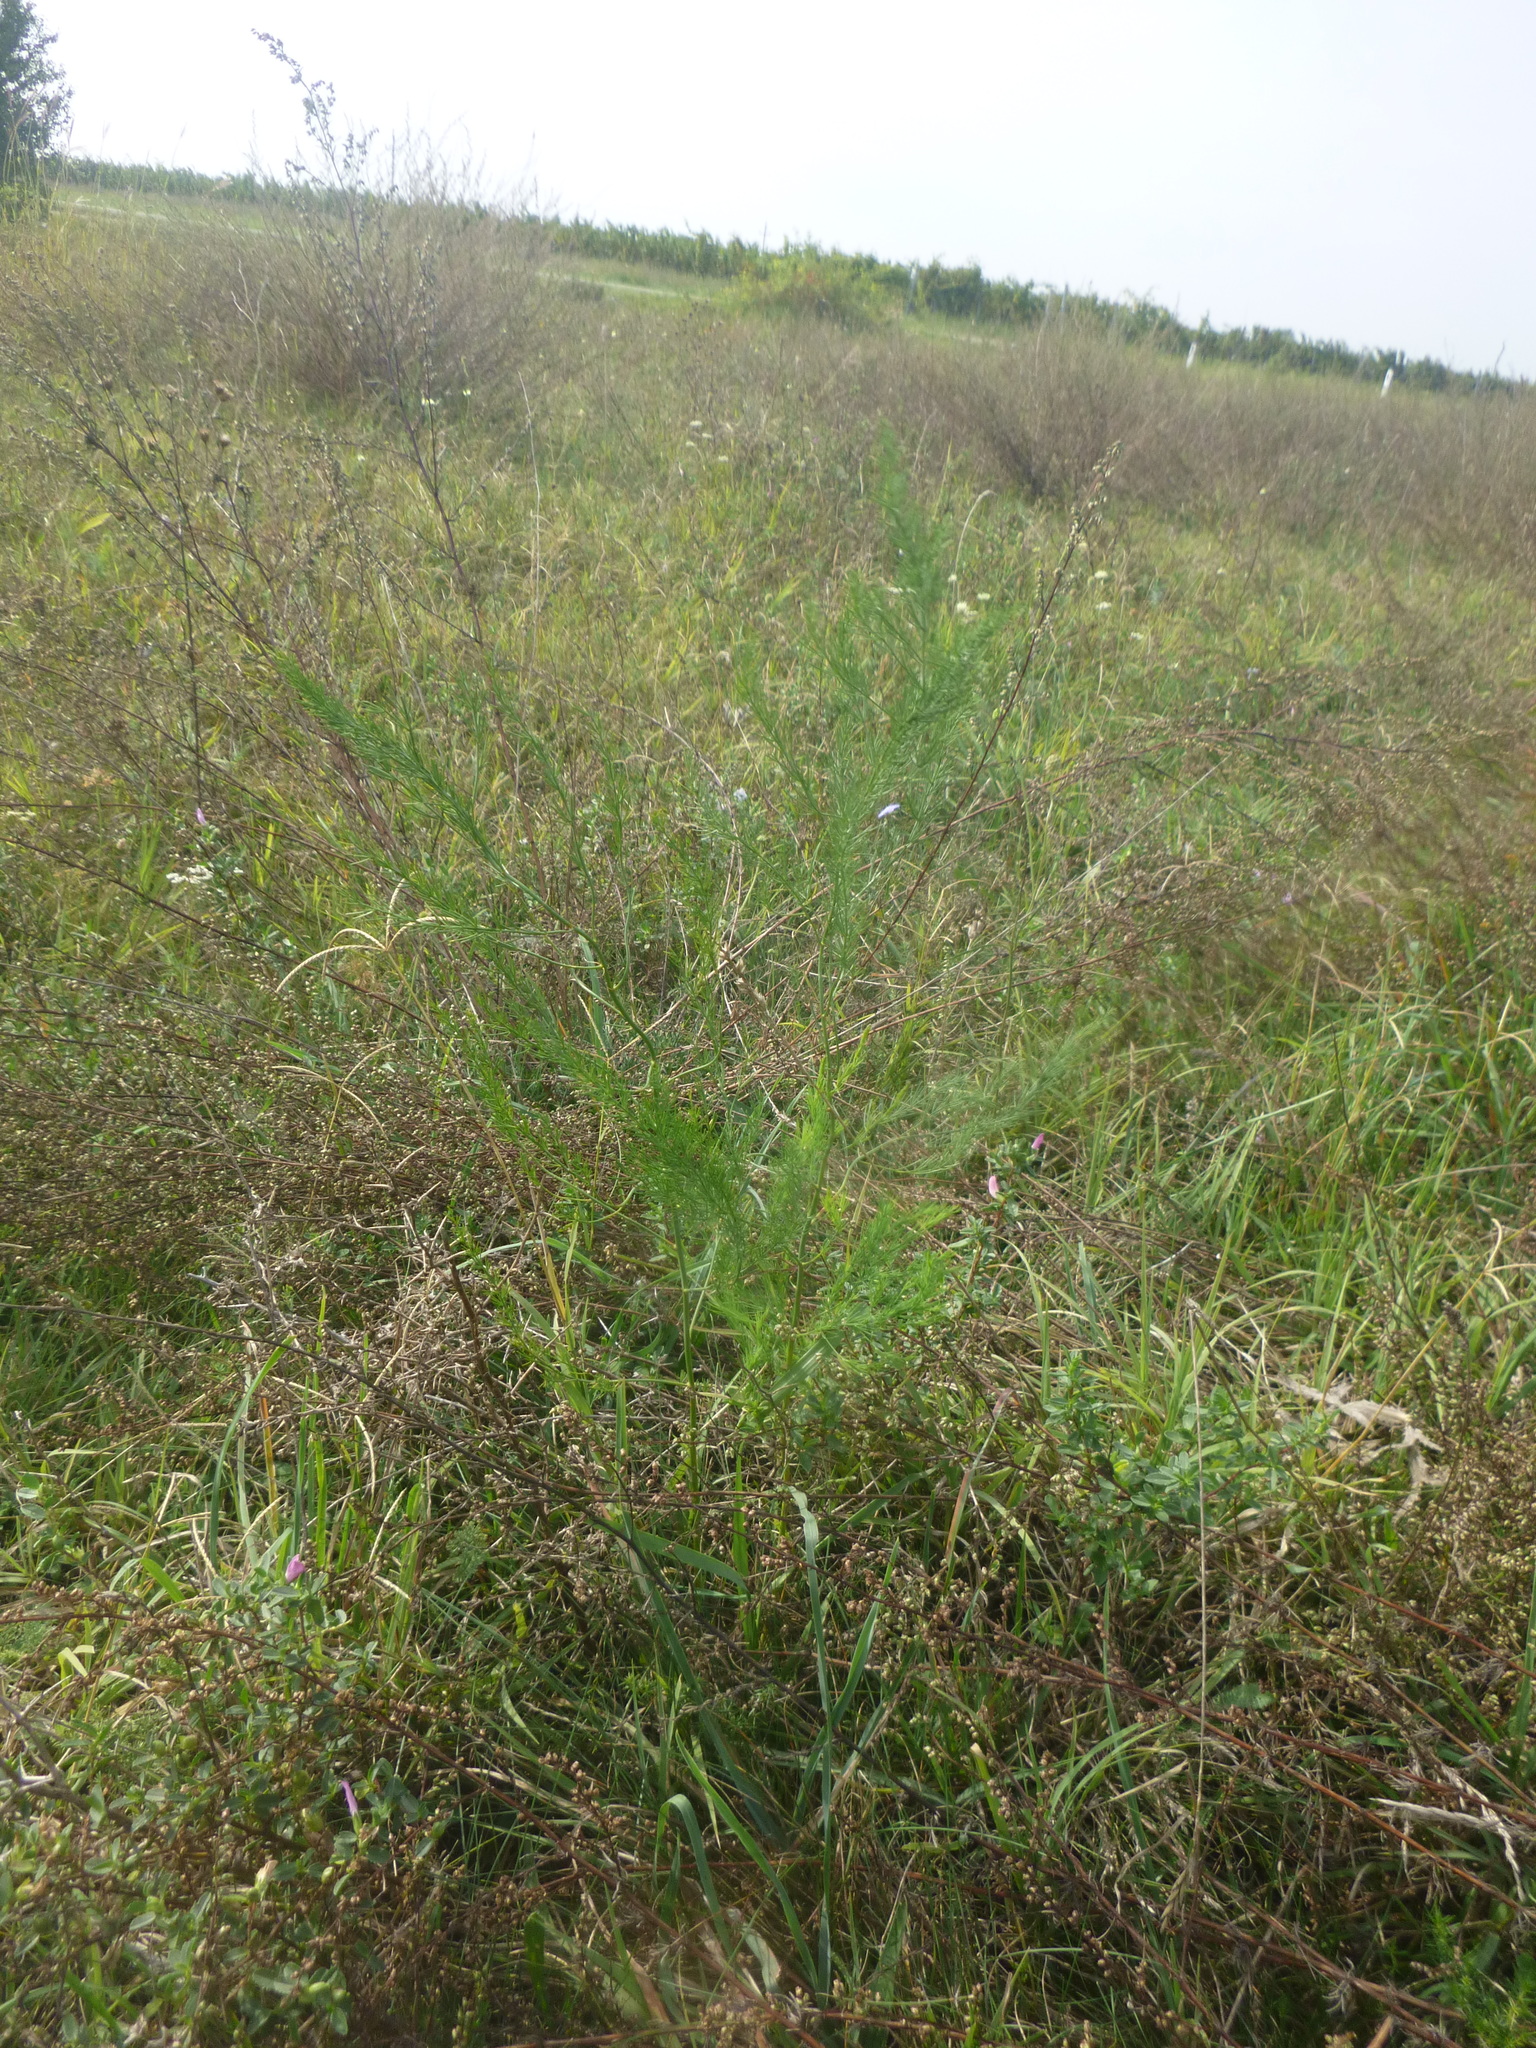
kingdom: Plantae
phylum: Tracheophyta
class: Liliopsida
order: Asparagales
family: Asparagaceae
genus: Asparagus
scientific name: Asparagus officinalis
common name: Garden asparagus
